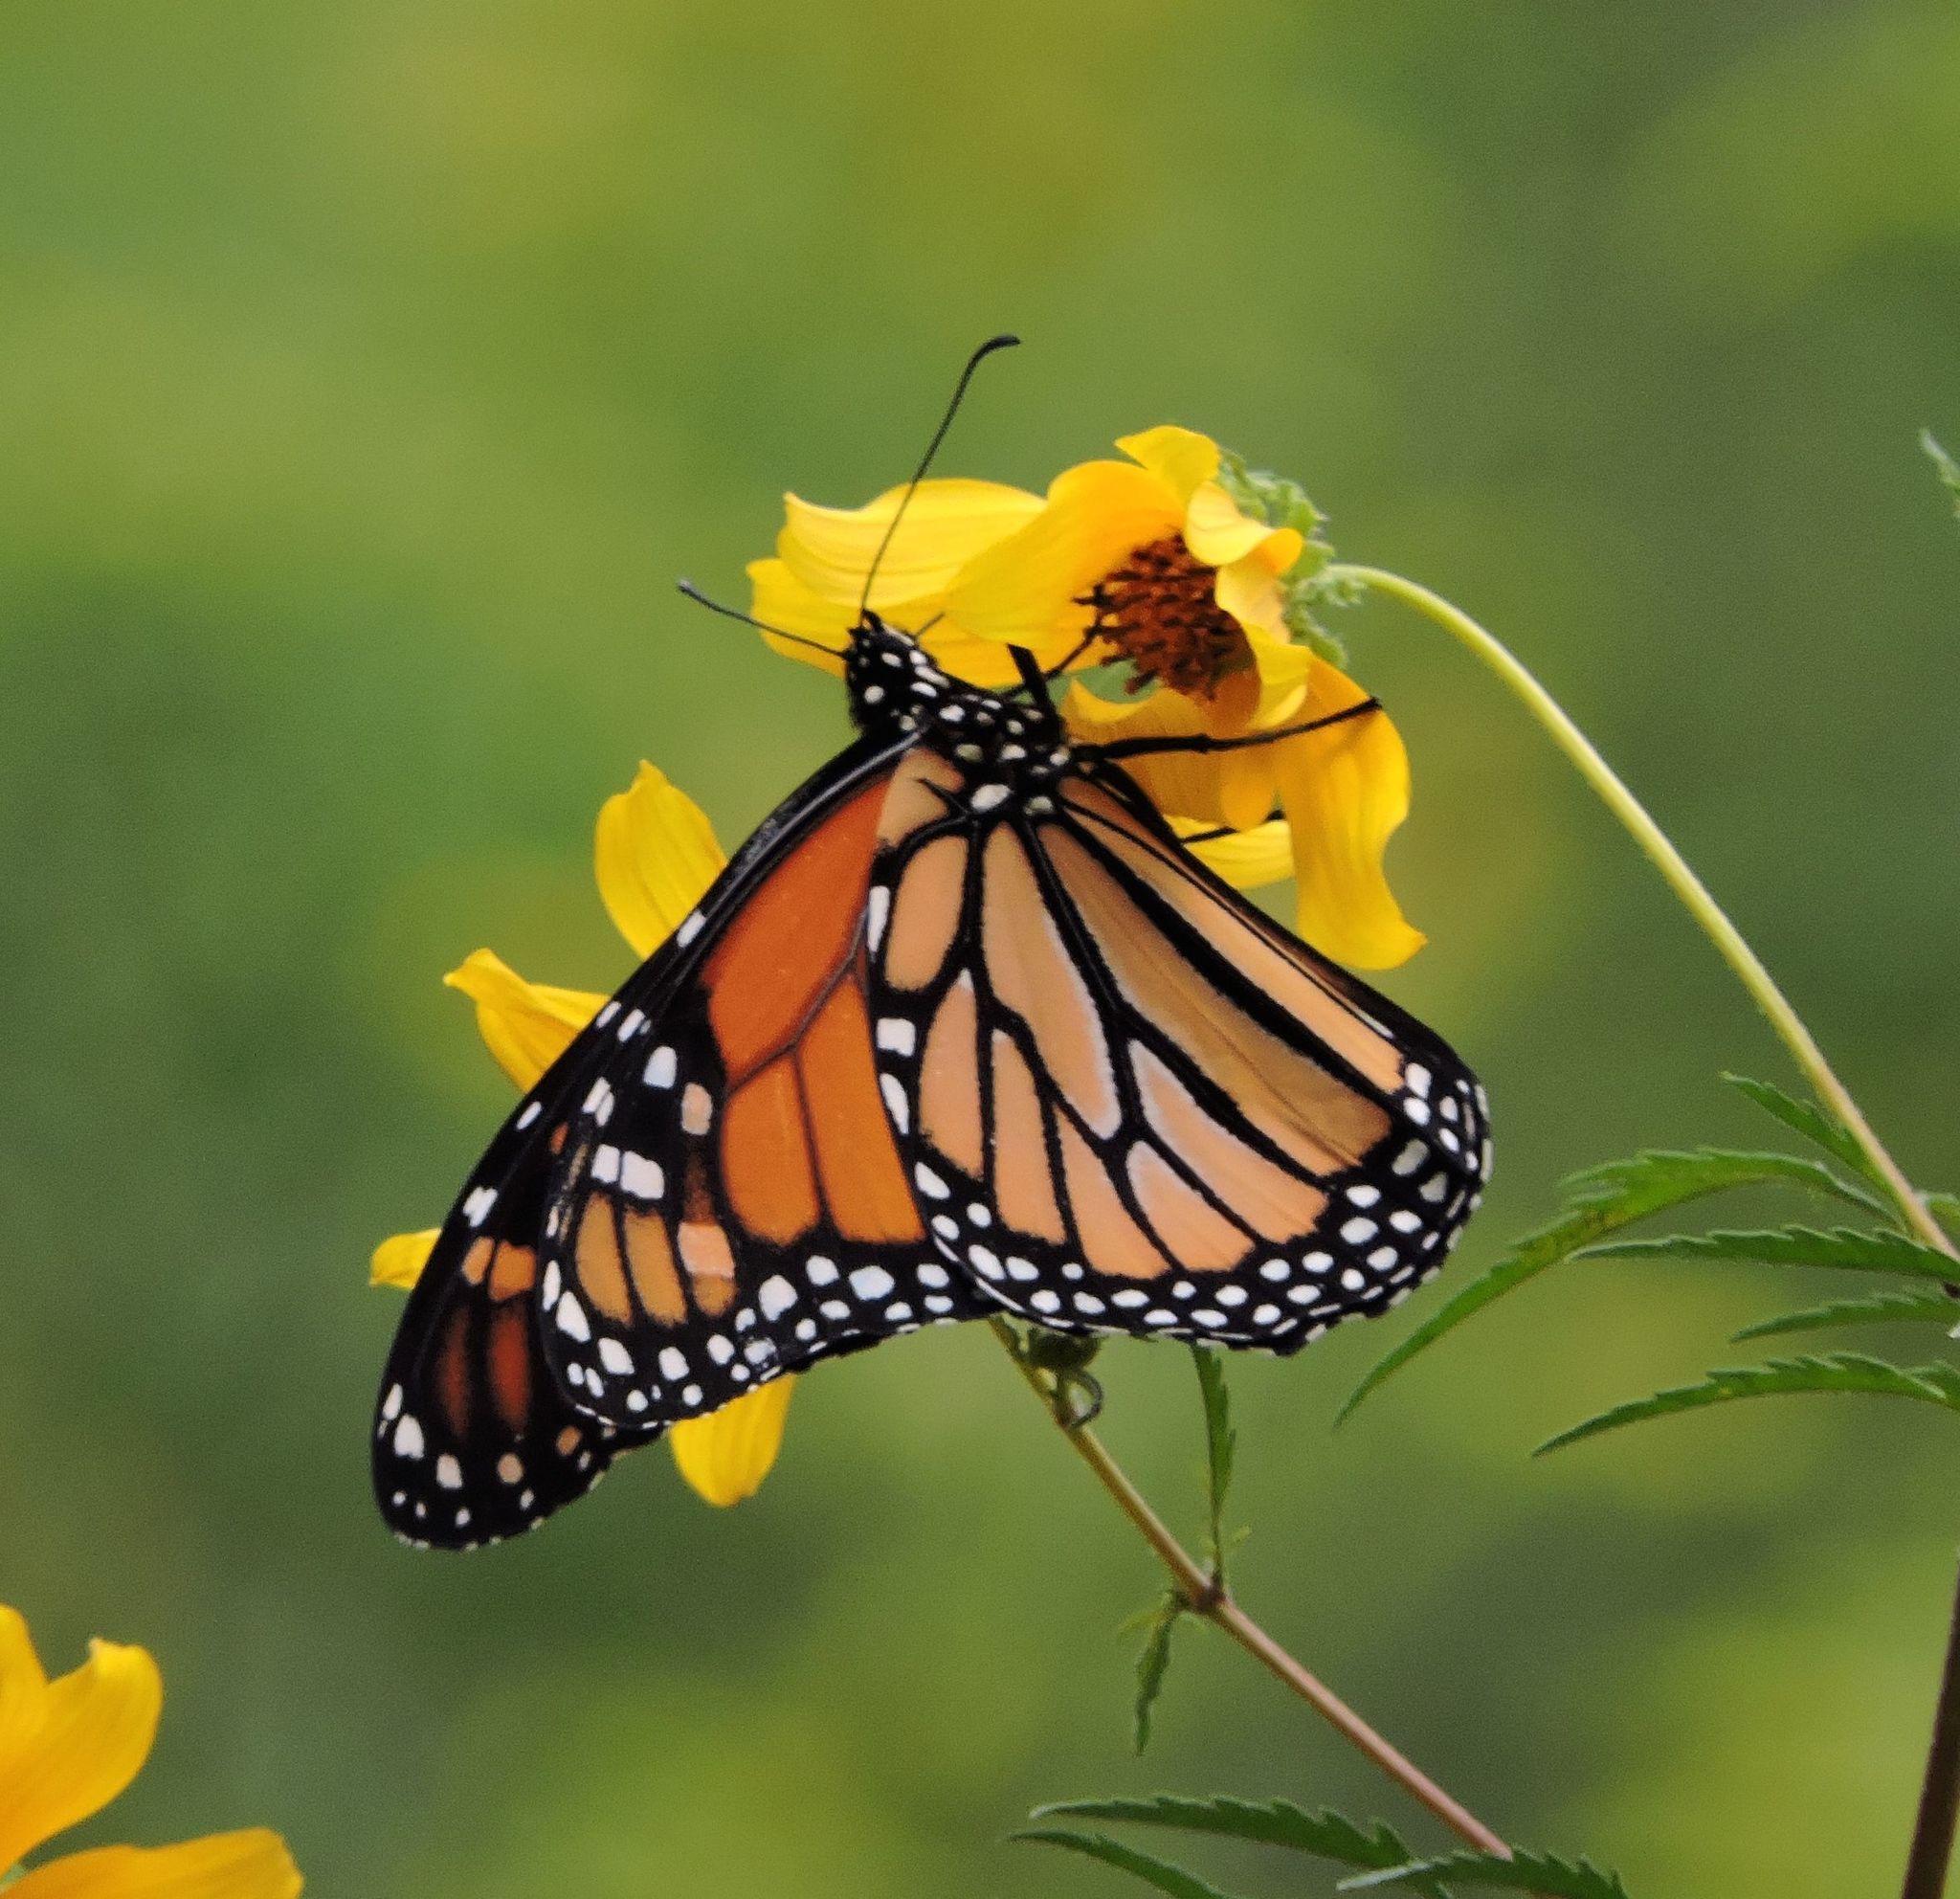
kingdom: Animalia
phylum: Arthropoda
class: Insecta
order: Lepidoptera
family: Nymphalidae
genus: Danaus
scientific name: Danaus plexippus
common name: Monarch
